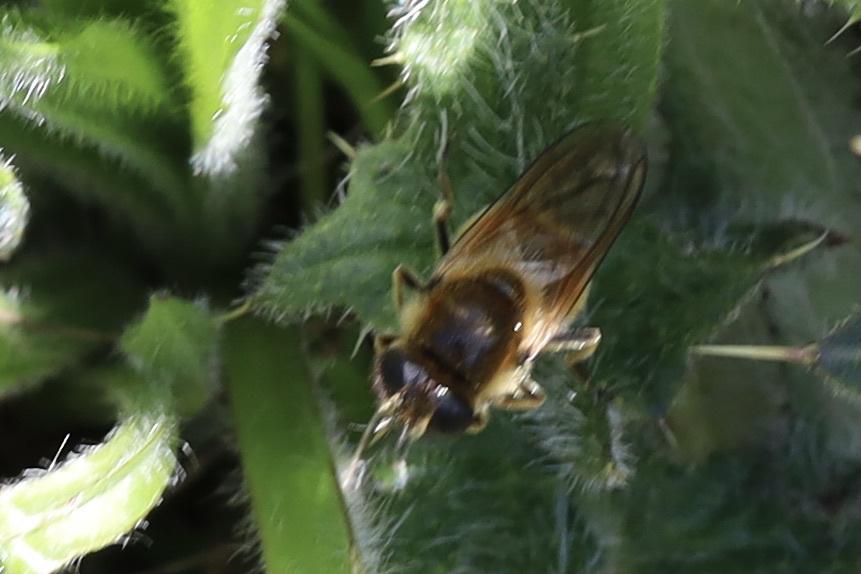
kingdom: Animalia
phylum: Arthropoda
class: Insecta
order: Diptera
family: Syrphidae
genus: Cheilosia
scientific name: Cheilosia corydon
